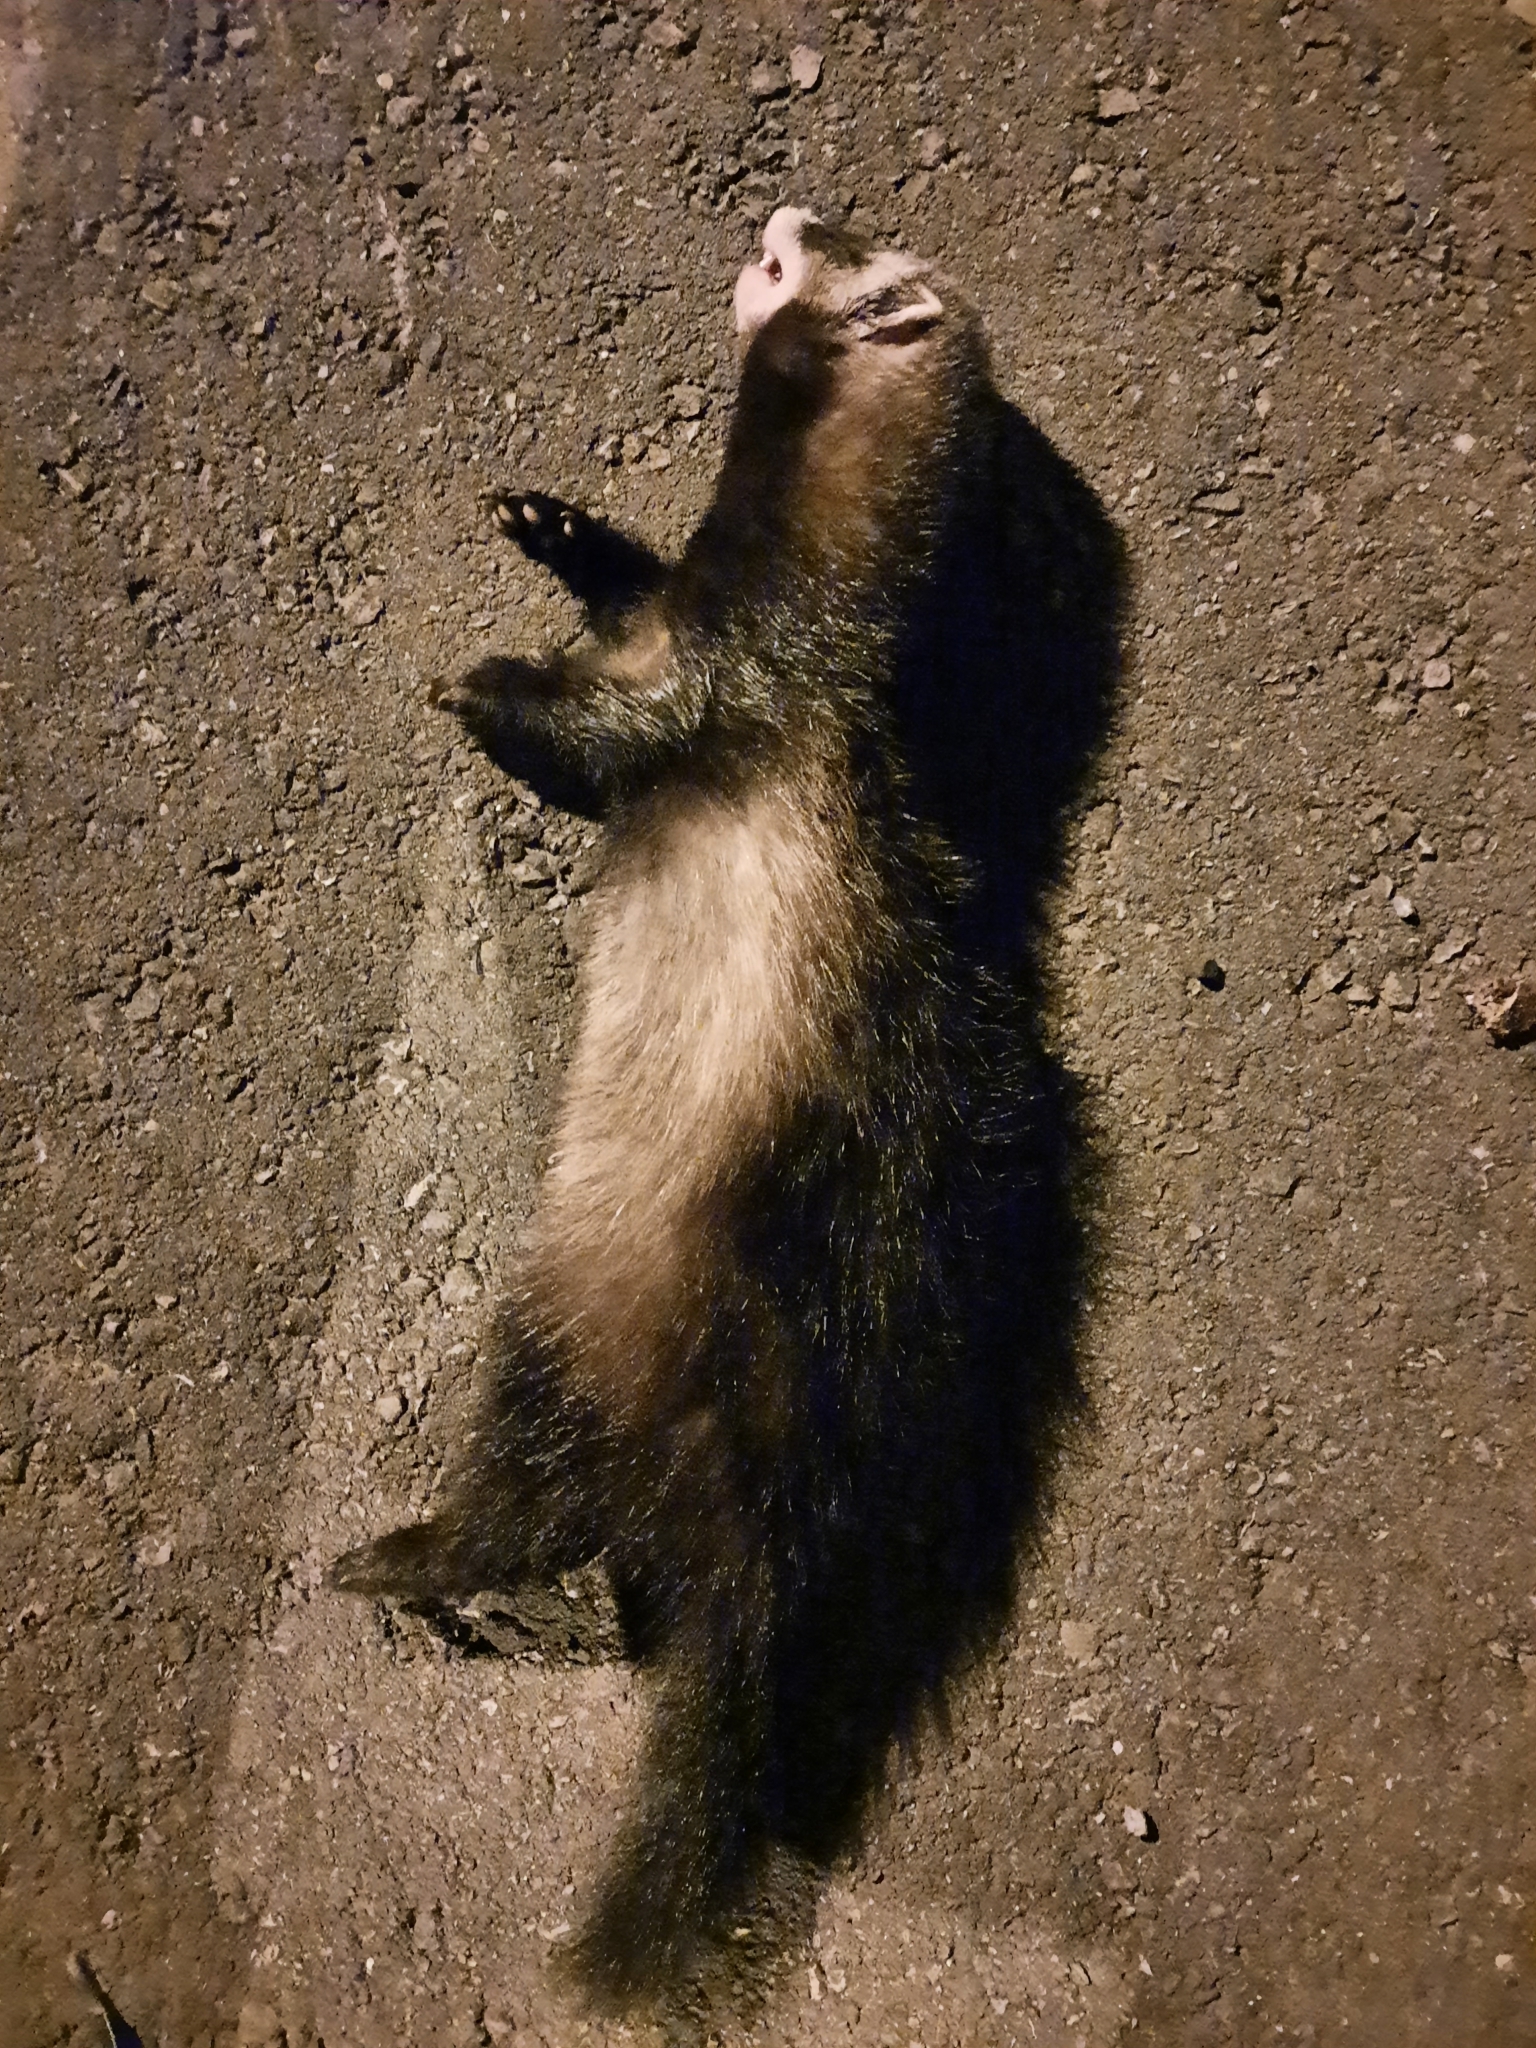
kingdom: Animalia
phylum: Chordata
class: Mammalia
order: Carnivora
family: Mustelidae
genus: Mustela
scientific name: Mustela putorius
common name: European polecat
